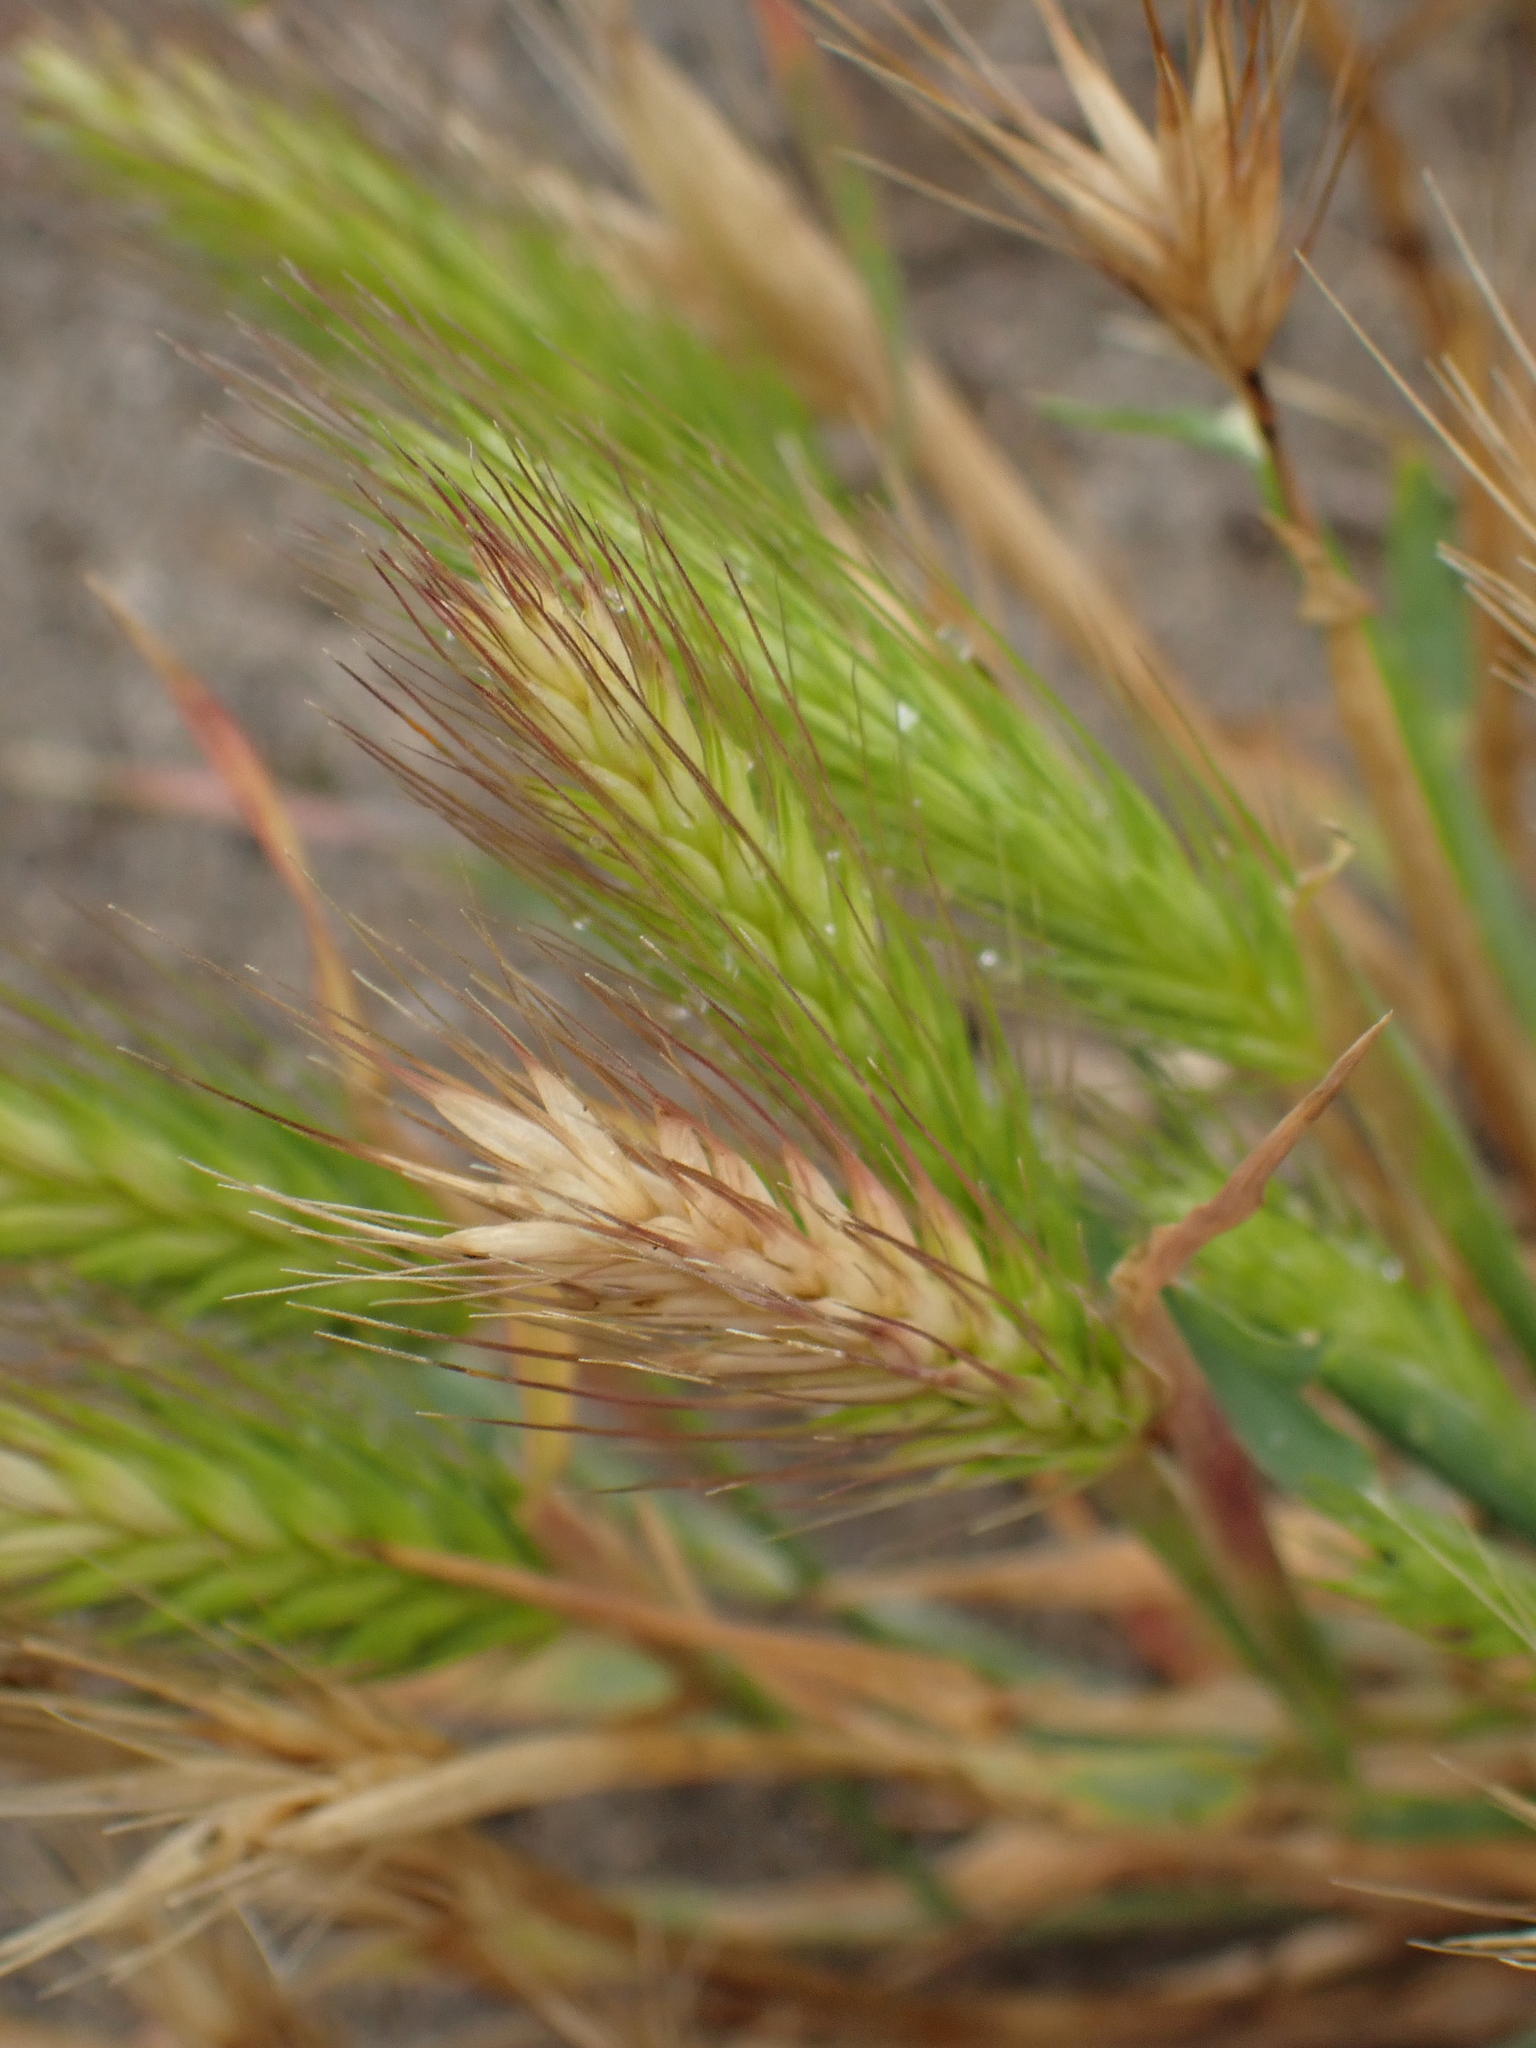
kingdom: Plantae
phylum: Tracheophyta
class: Liliopsida
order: Poales
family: Poaceae
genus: Hordeum
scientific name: Hordeum murinum
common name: Wall barley
